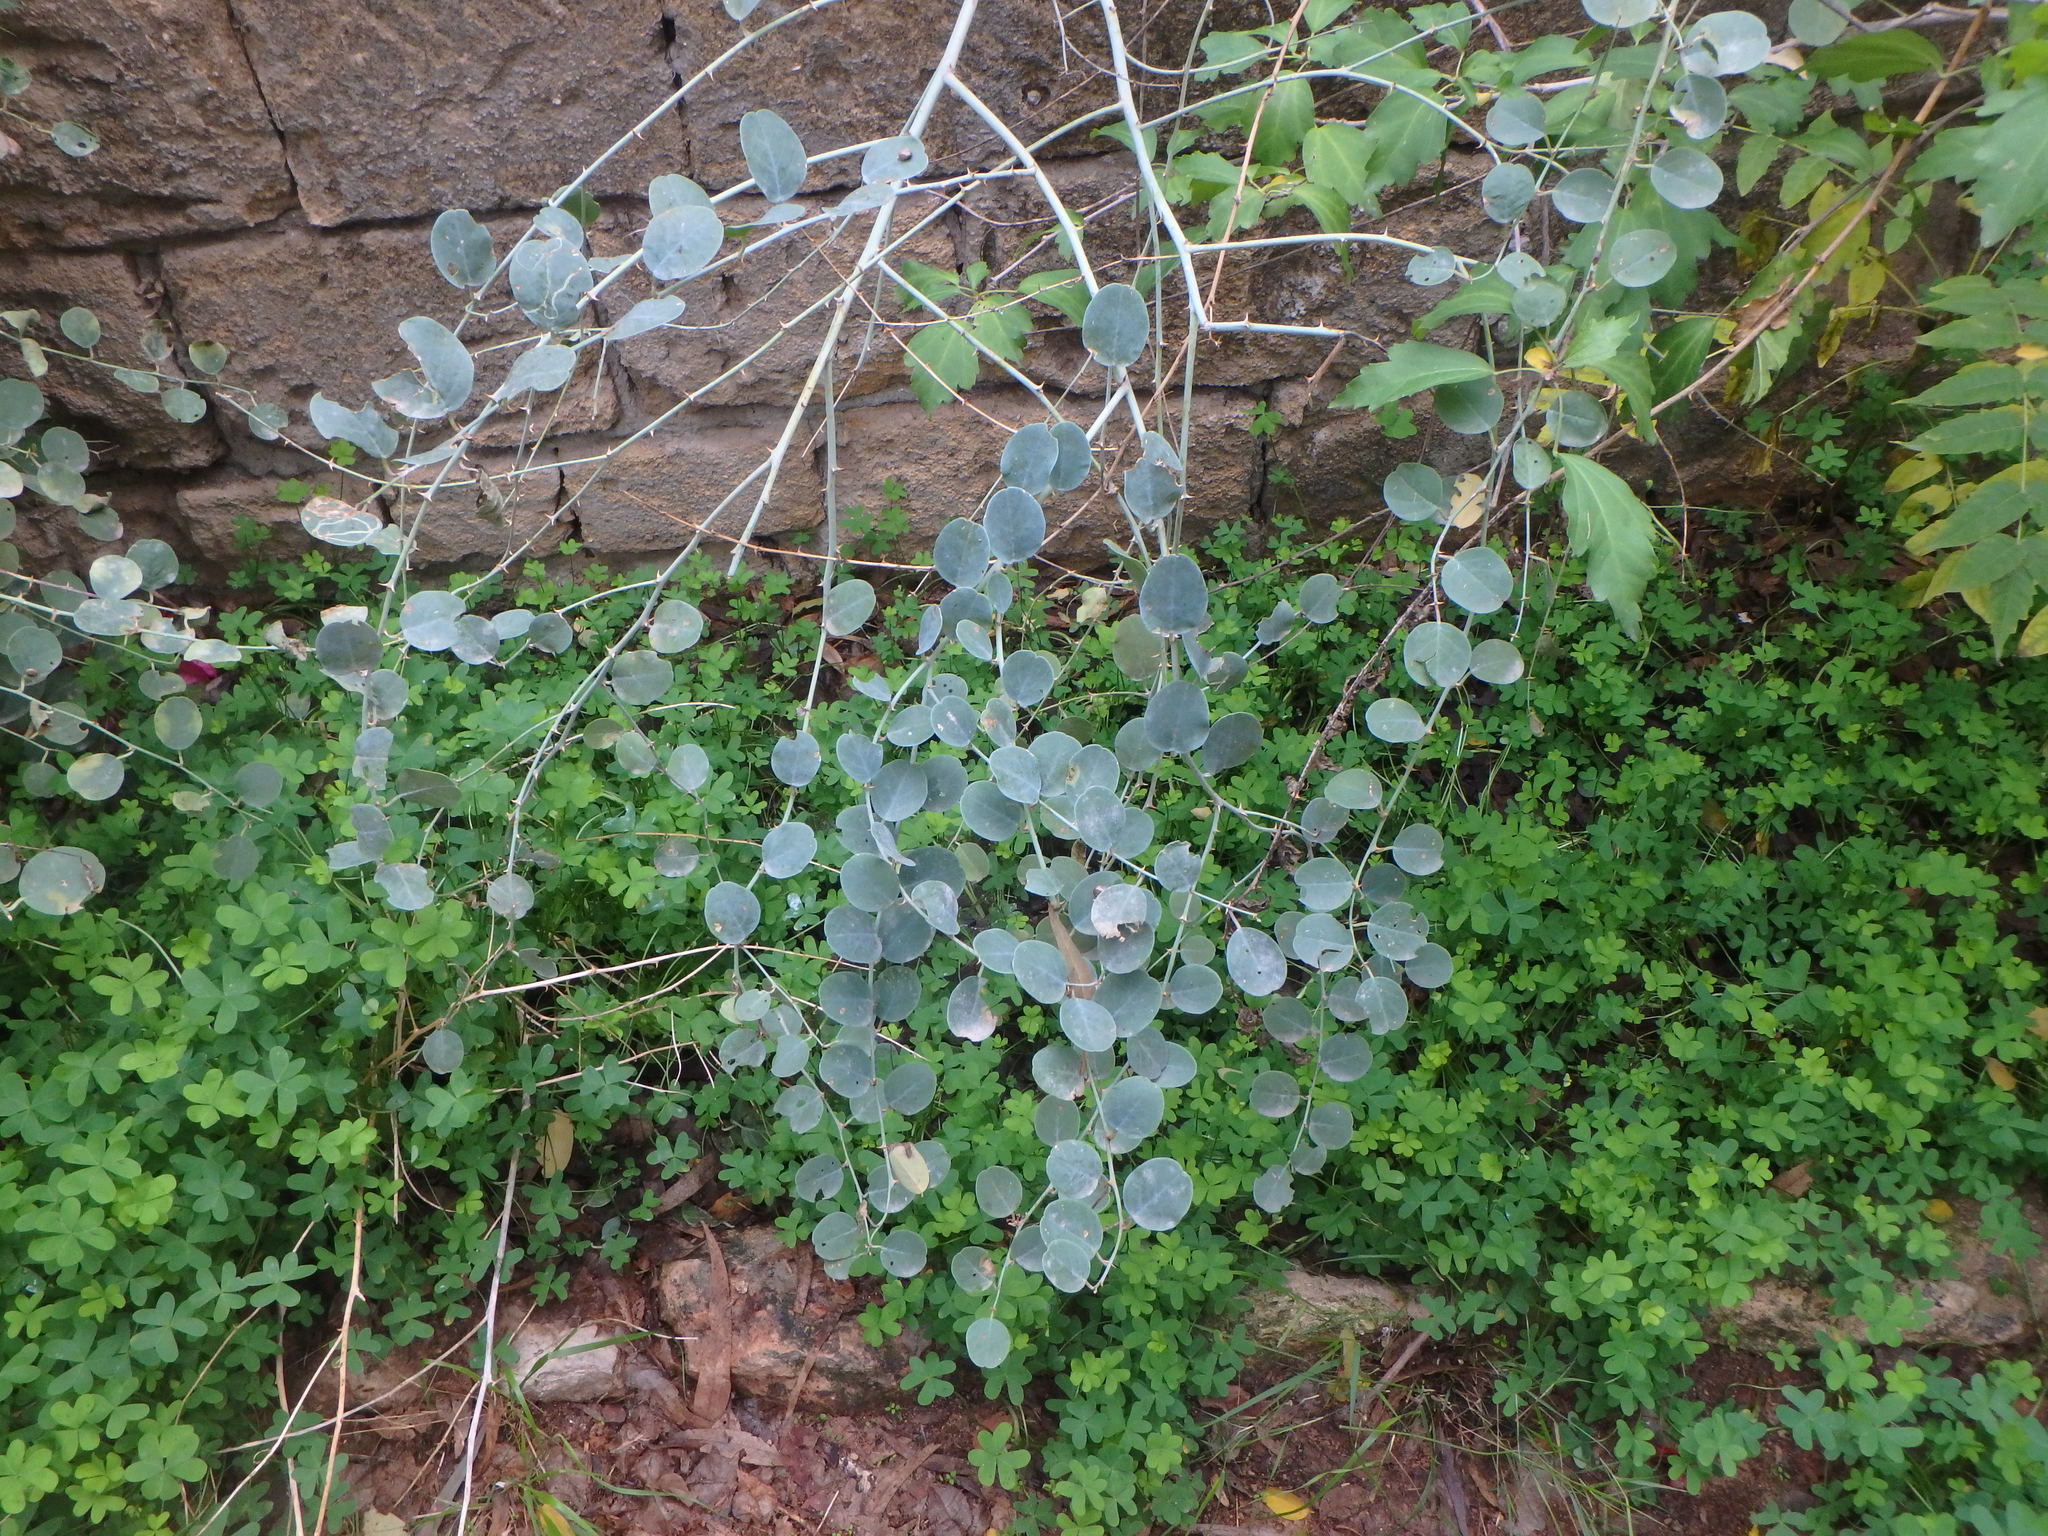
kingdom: Plantae
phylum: Tracheophyta
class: Magnoliopsida
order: Brassicales
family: Capparaceae
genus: Capparis
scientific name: Capparis spinosa
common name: Caper
